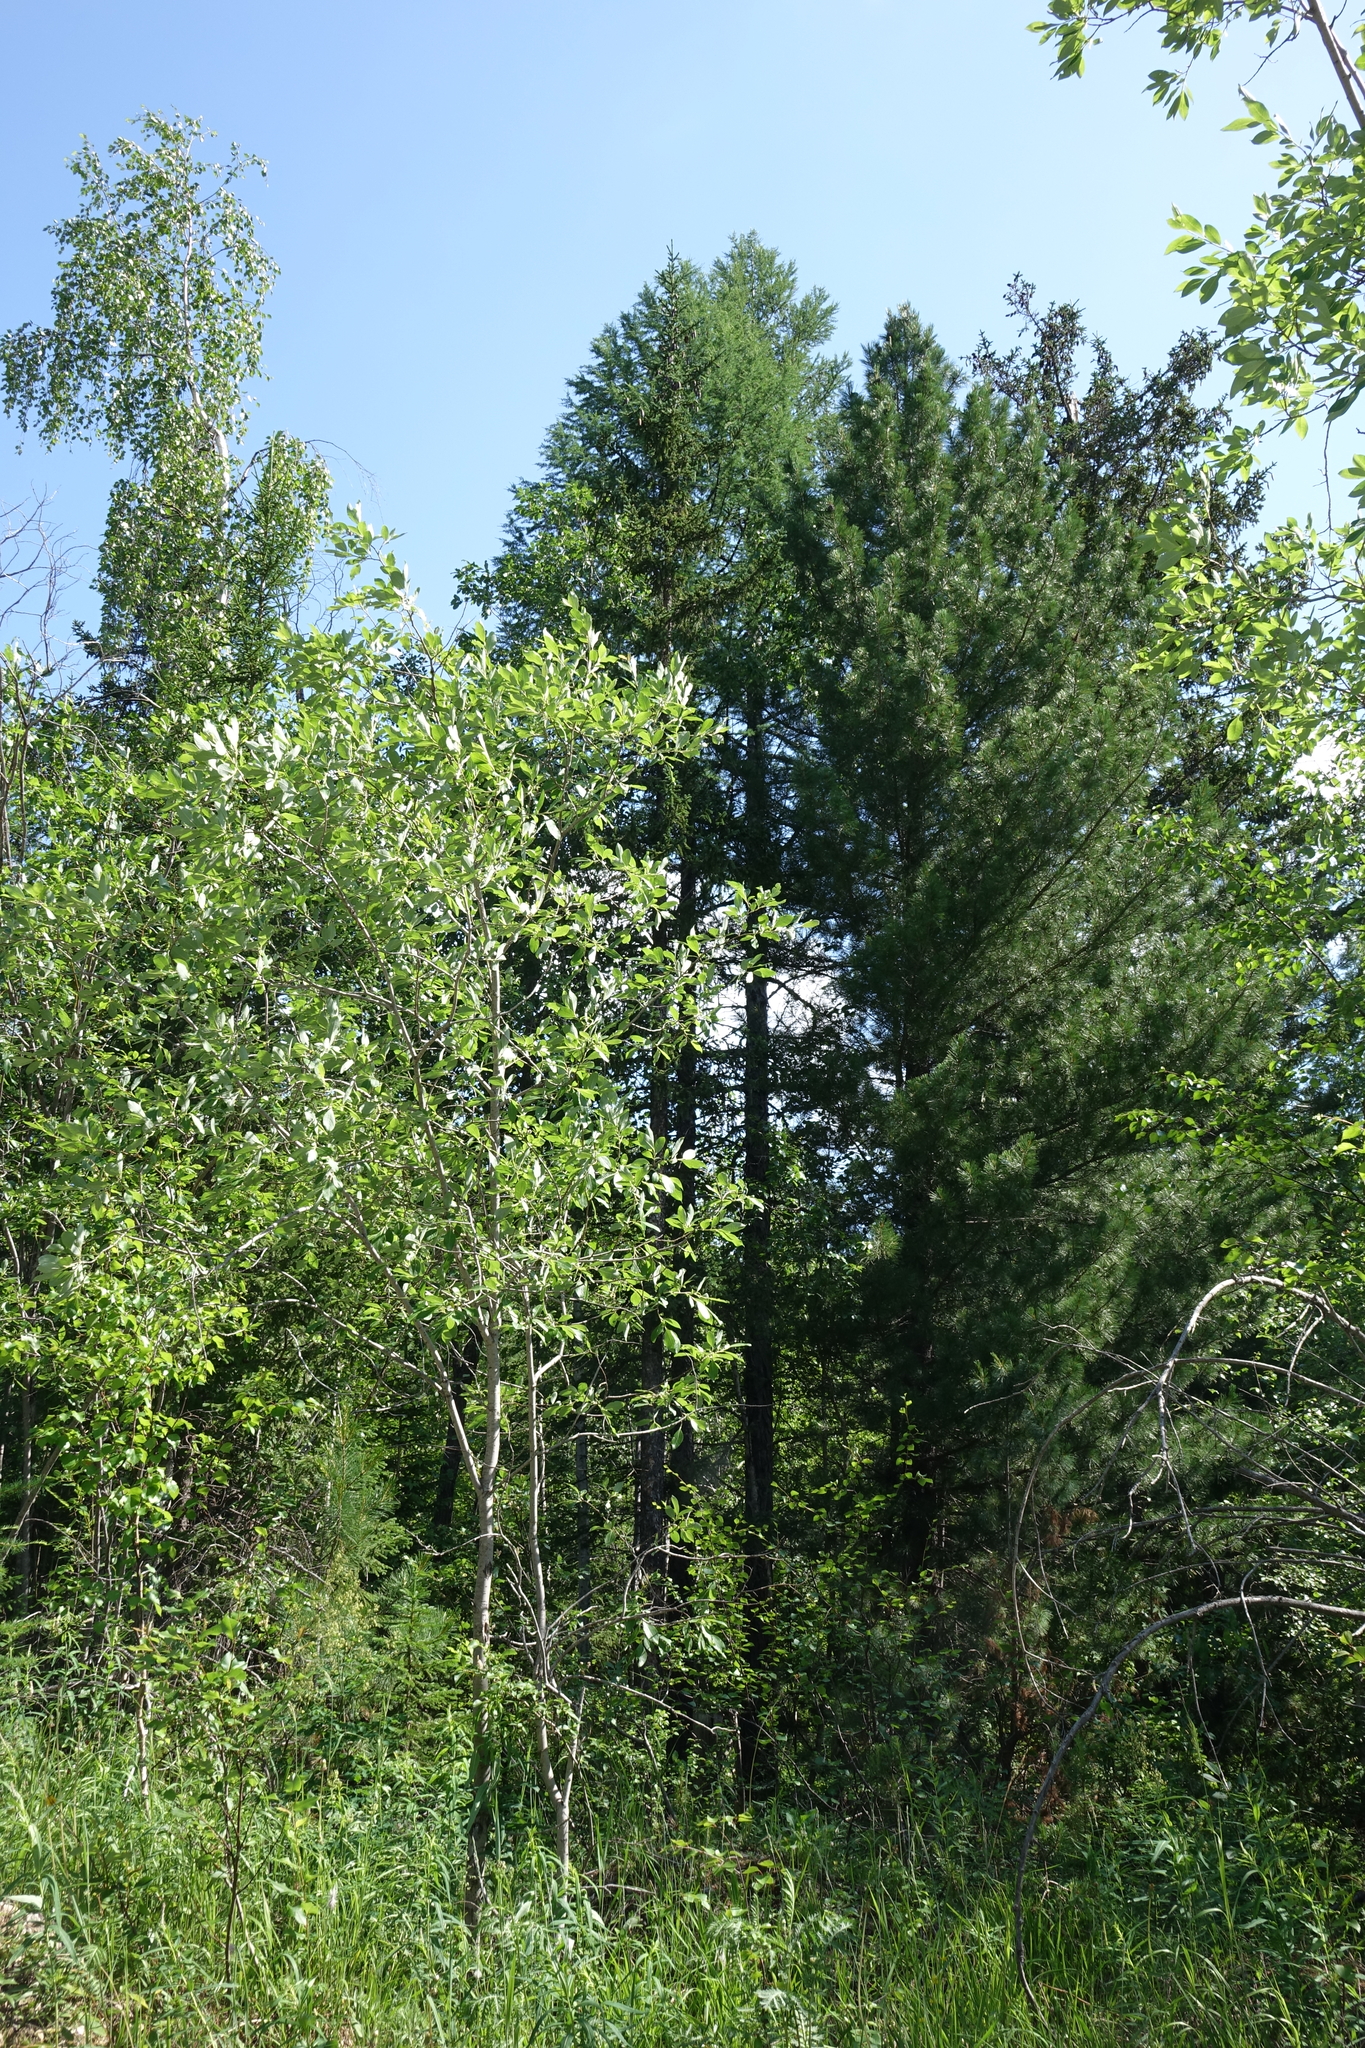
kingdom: Plantae
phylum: Tracheophyta
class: Pinopsida
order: Pinales
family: Pinaceae
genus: Pinus
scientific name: Pinus sibirica
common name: Siberian pine
